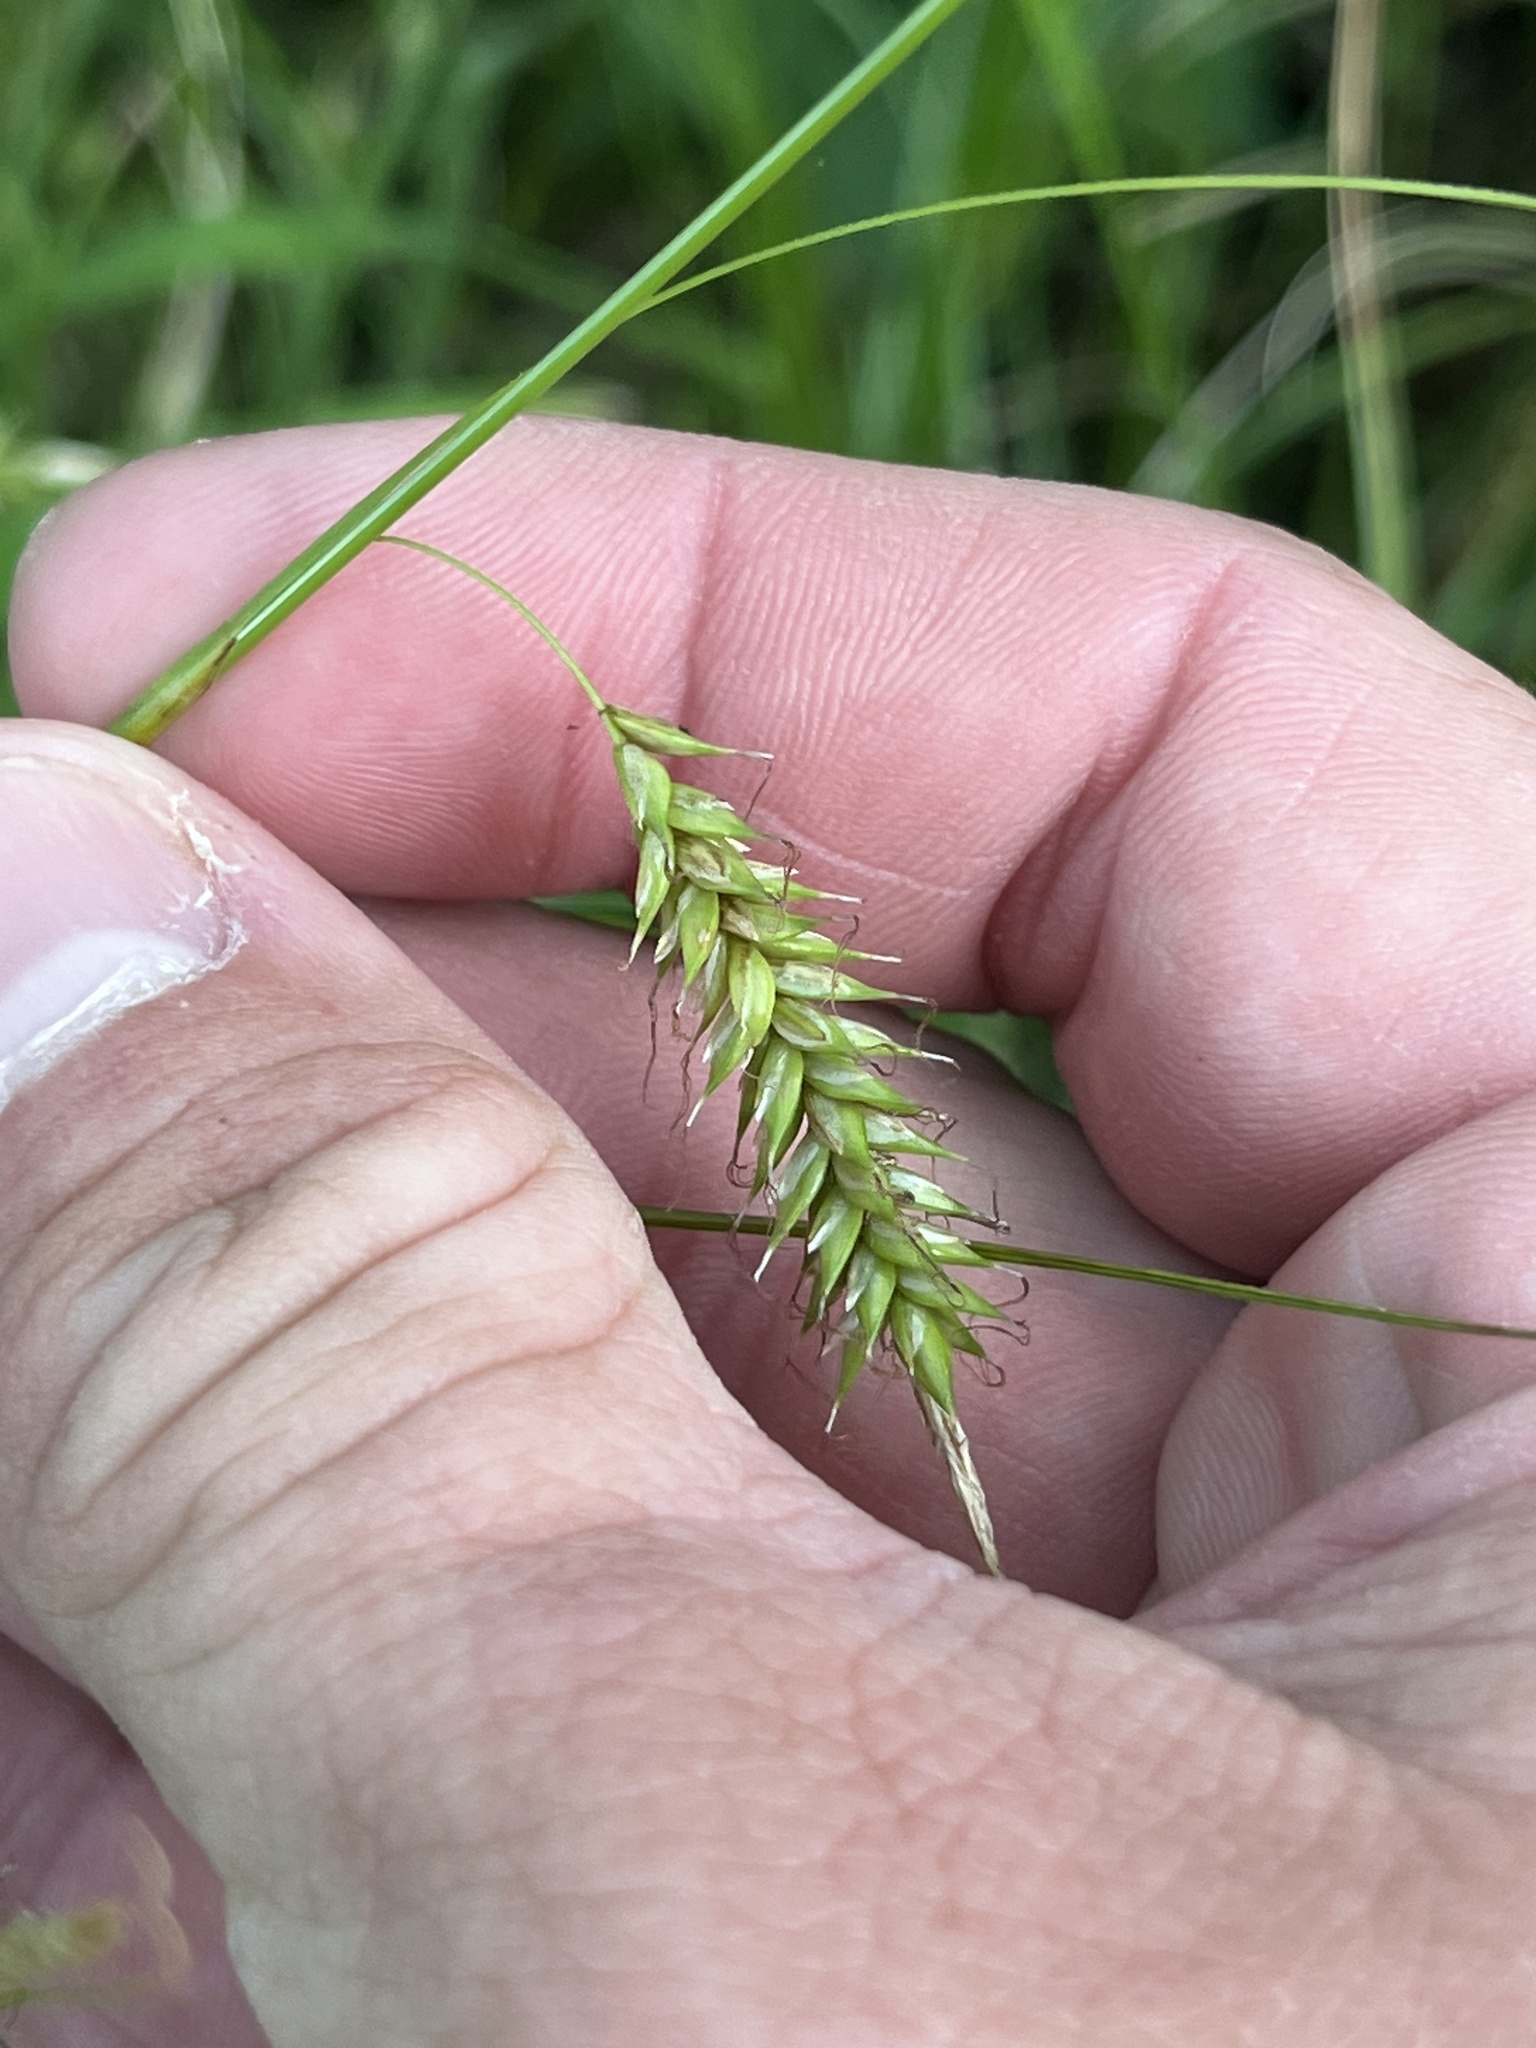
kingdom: Plantae
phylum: Tracheophyta
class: Liliopsida
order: Poales
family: Cyperaceae
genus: Carex
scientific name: Carex cherokeensis
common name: Cherokee sedge
